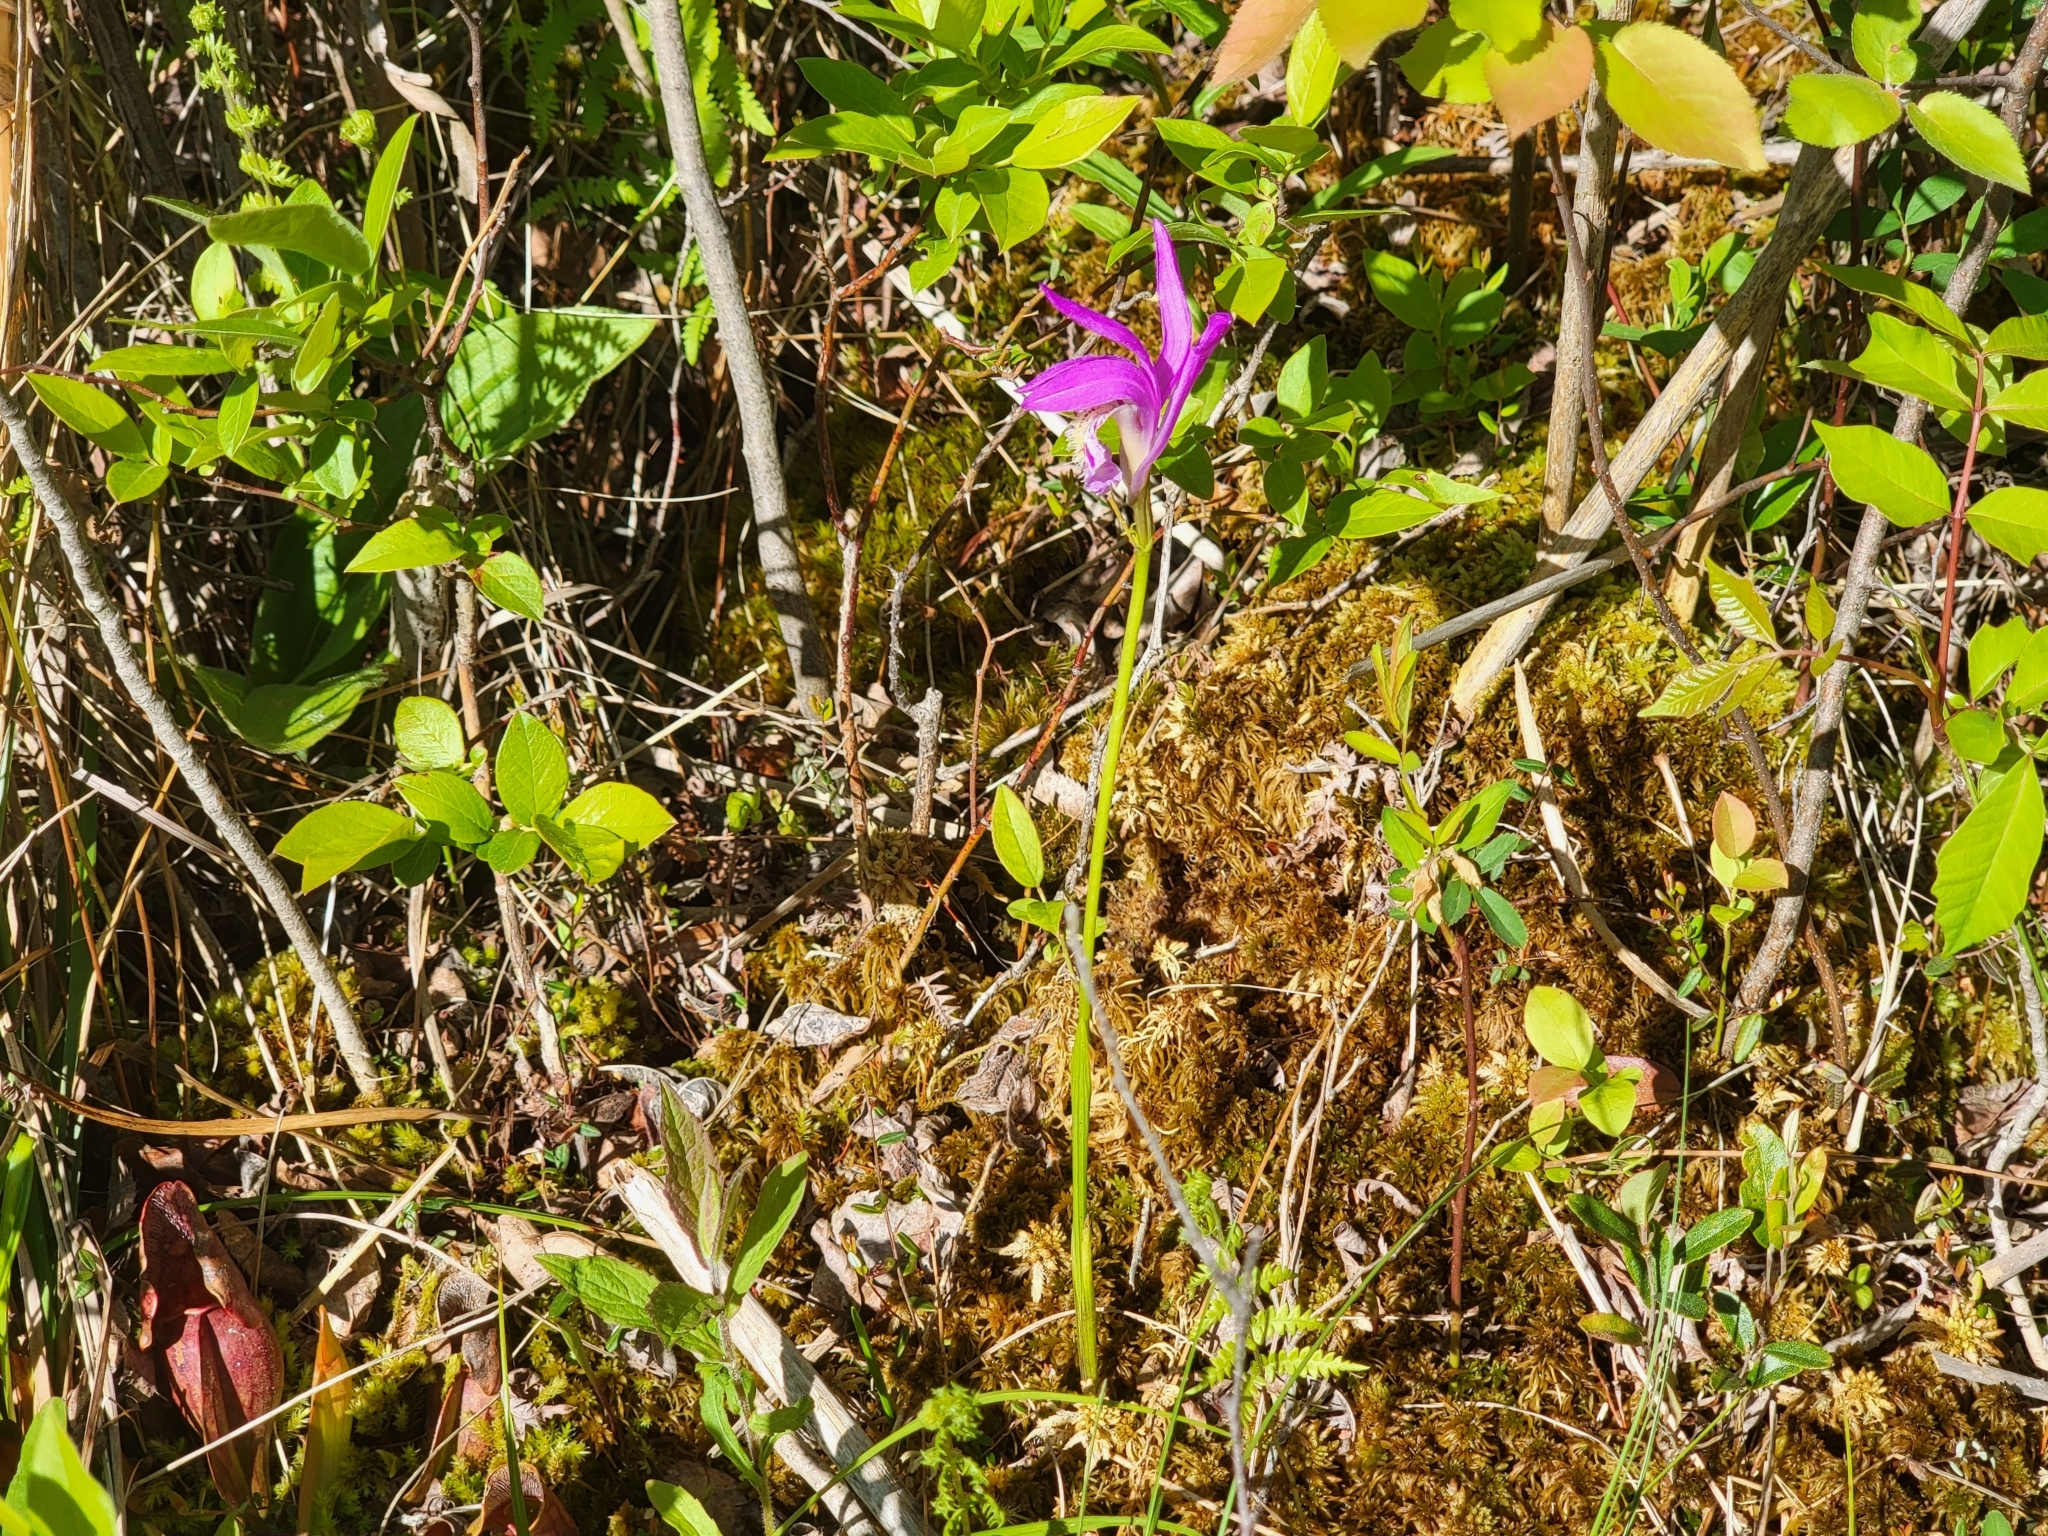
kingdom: Plantae
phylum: Tracheophyta
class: Liliopsida
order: Asparagales
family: Orchidaceae
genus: Arethusa
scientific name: Arethusa bulbosa
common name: Arethusa
